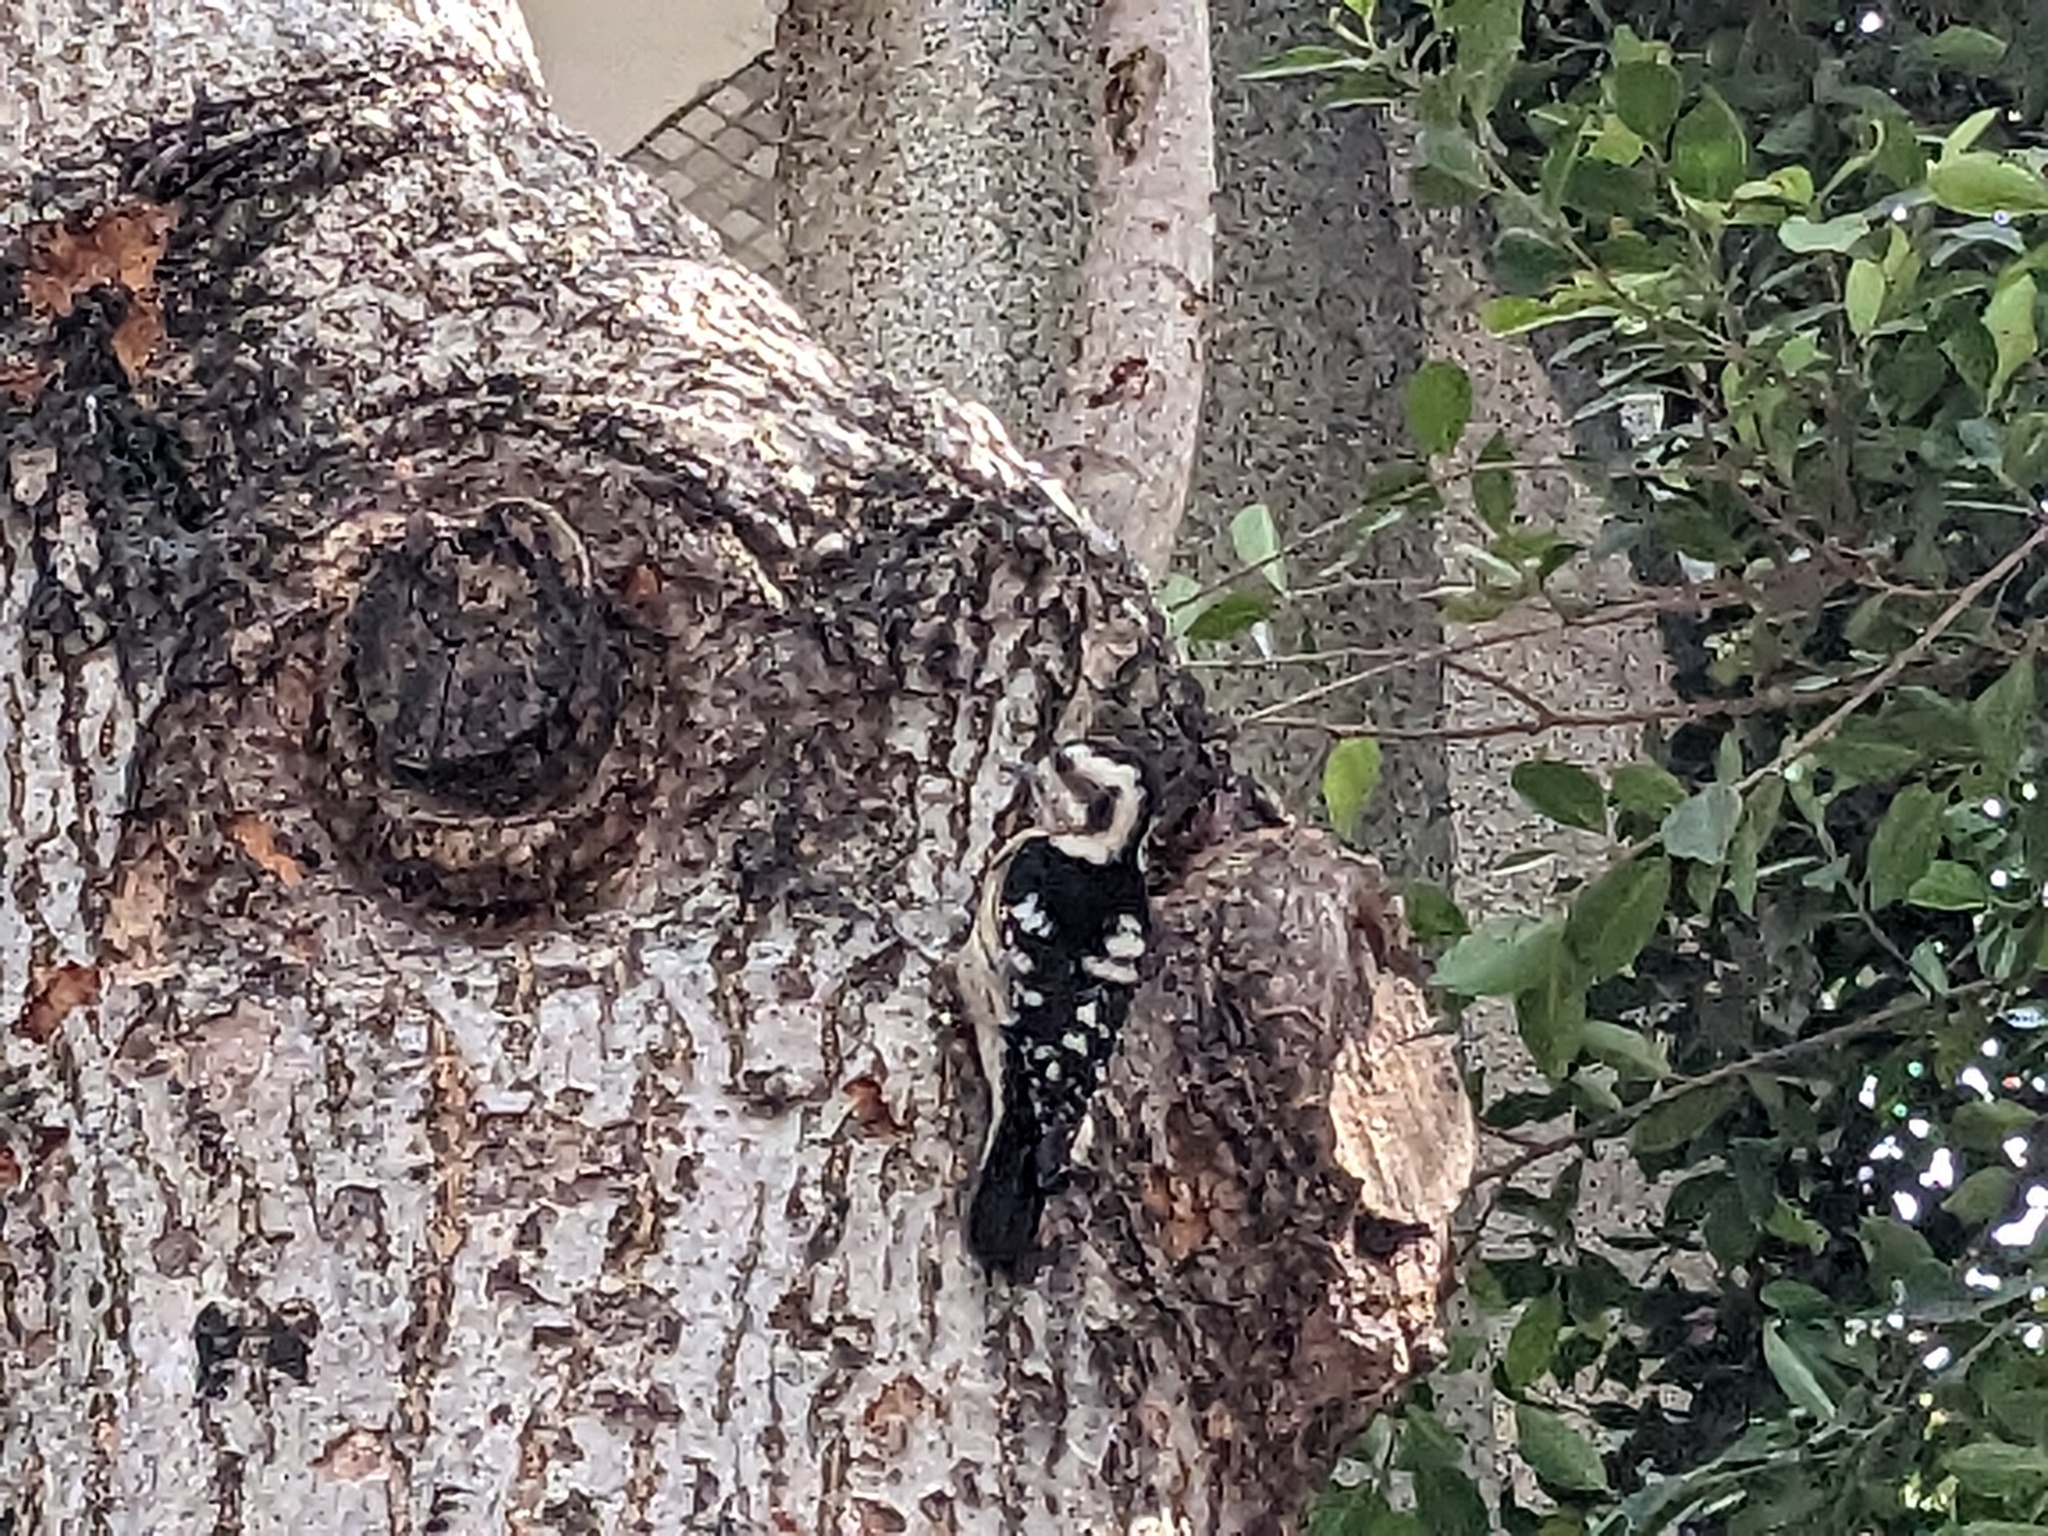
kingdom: Animalia
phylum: Chordata
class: Aves
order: Piciformes
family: Picidae
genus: Yungipicus
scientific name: Yungipicus canicapillus
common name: Grey-capped pygmy woodpecker
